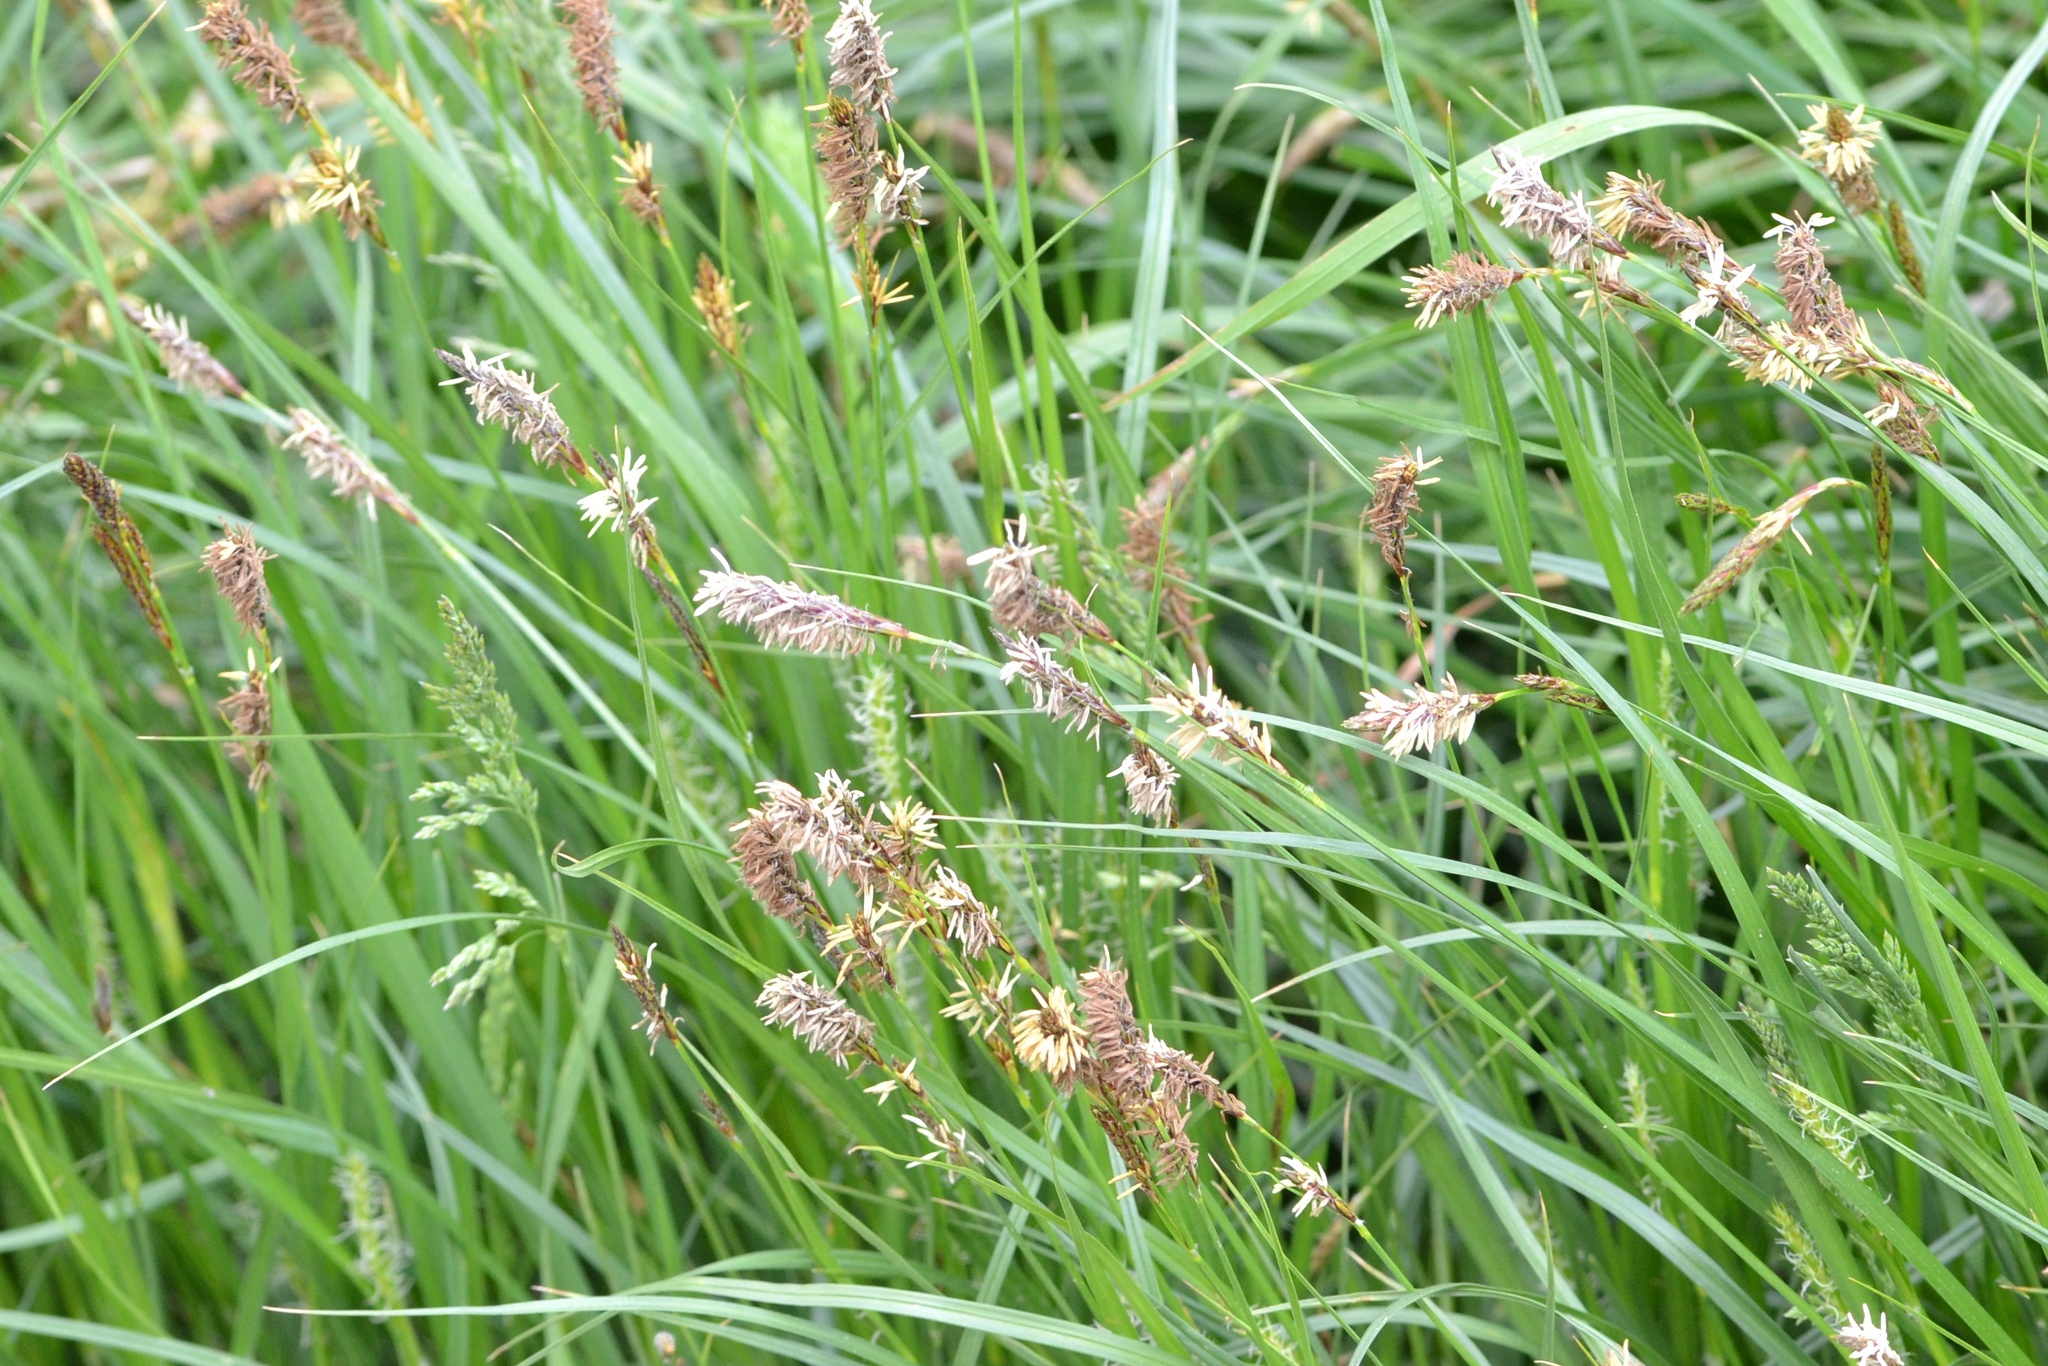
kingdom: Plantae
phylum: Tracheophyta
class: Liliopsida
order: Poales
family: Cyperaceae
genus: Carex
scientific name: Carex hirta
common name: Hairy sedge
